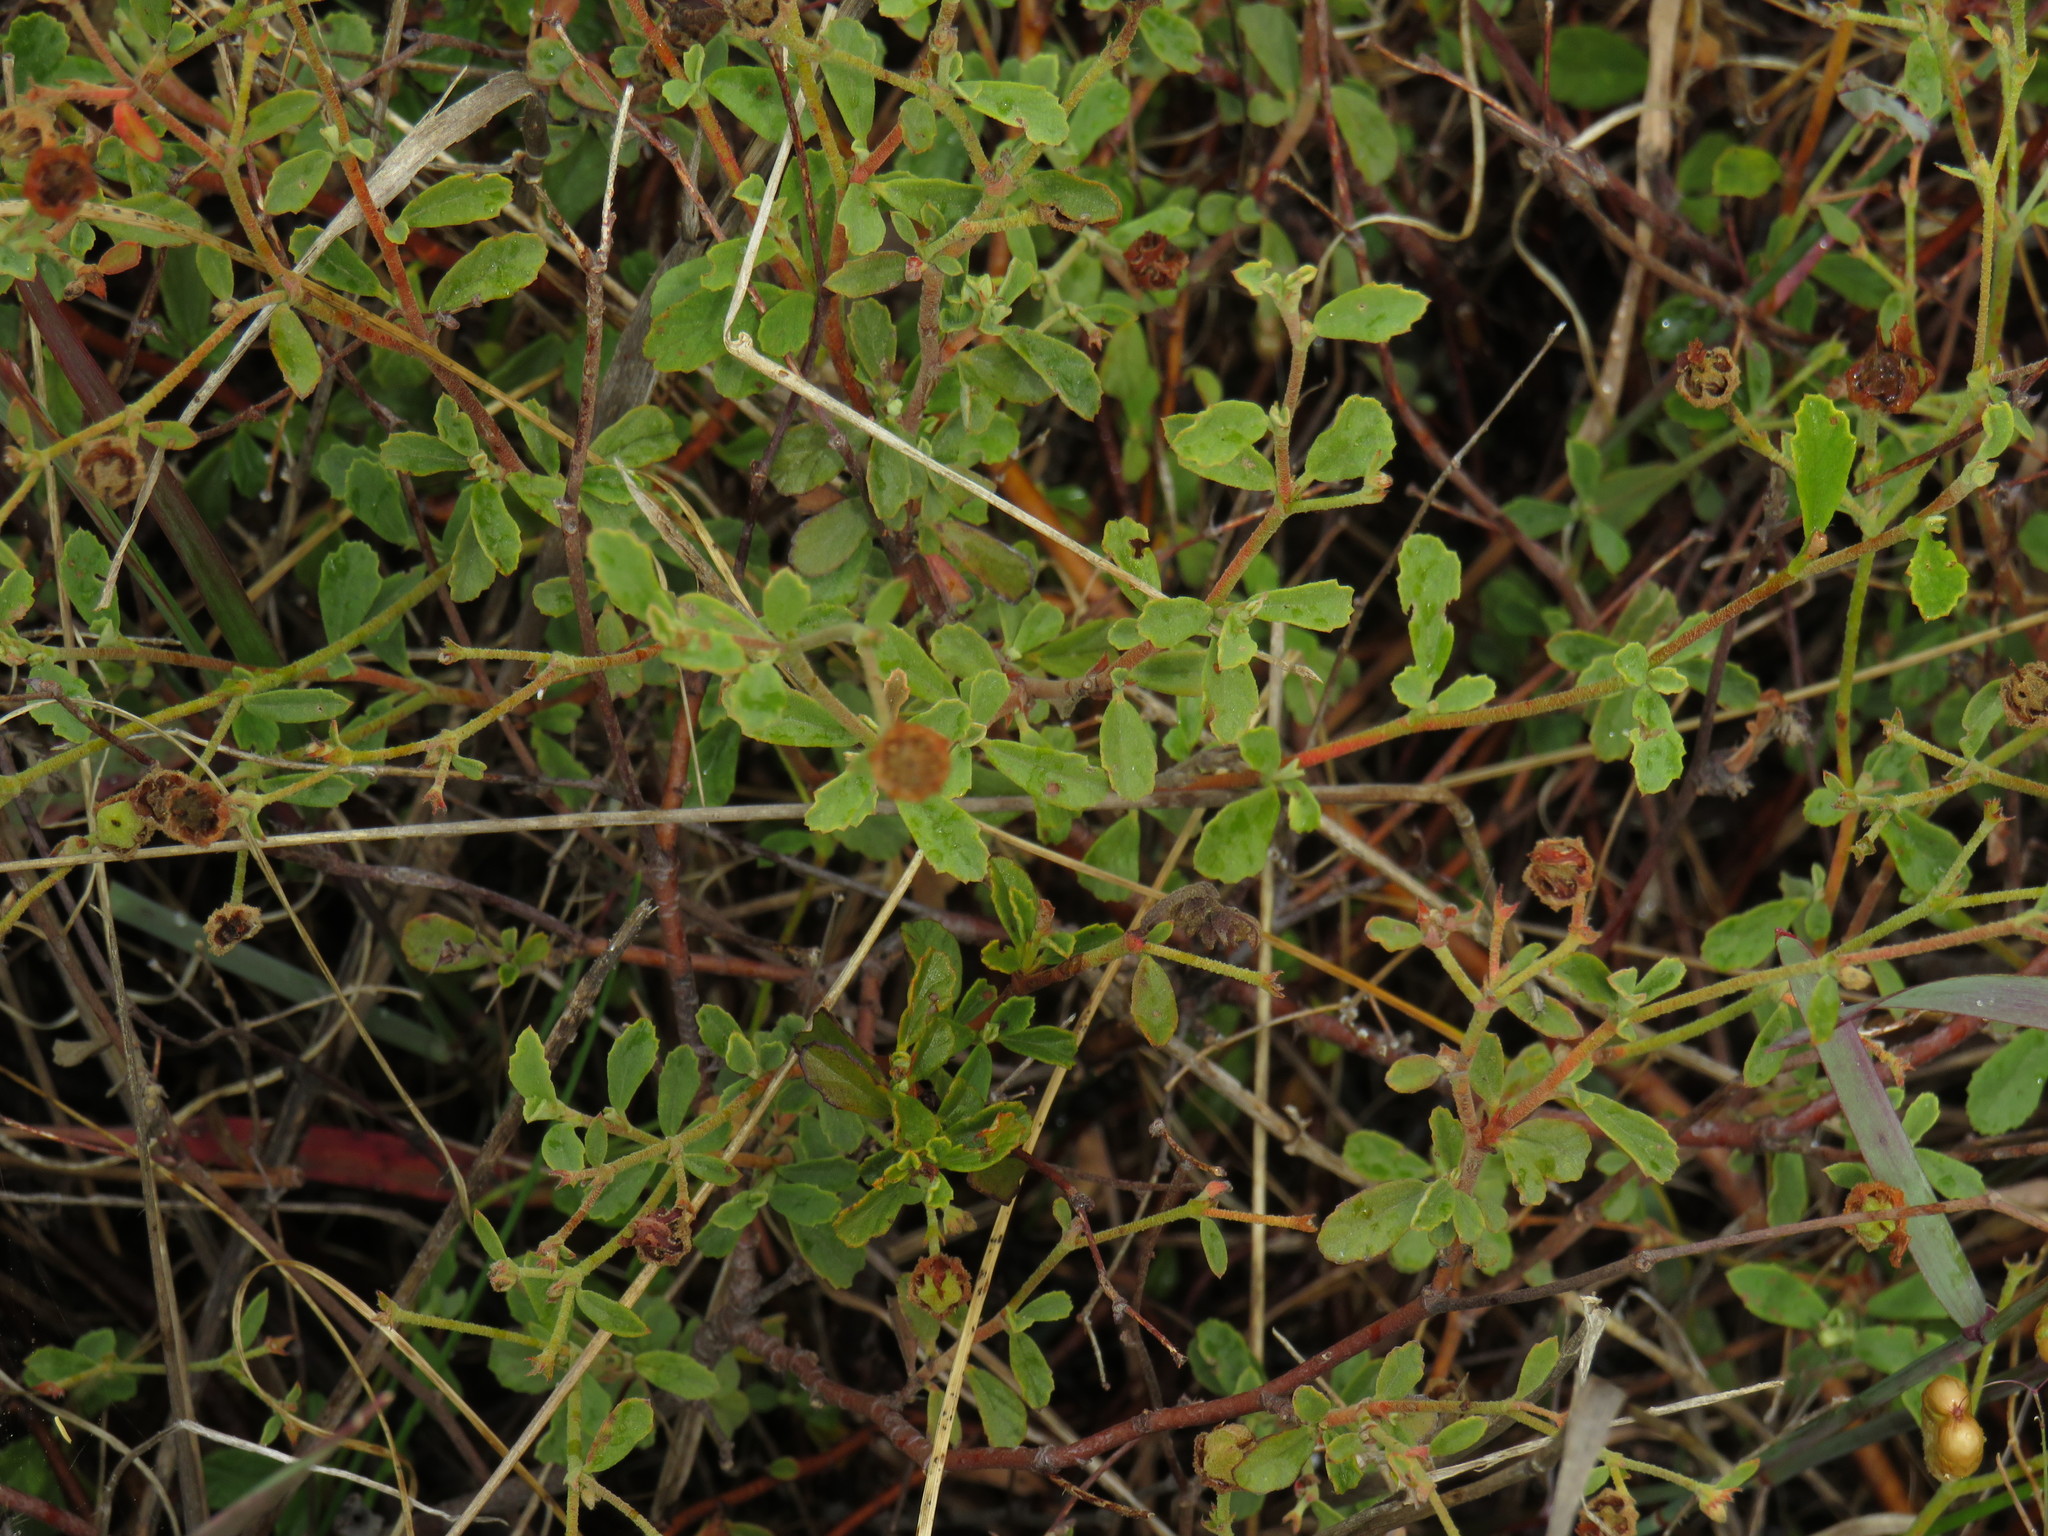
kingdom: Plantae
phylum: Tracheophyta
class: Magnoliopsida
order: Malvales
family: Malvaceae
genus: Hermannia
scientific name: Hermannia multiflora
